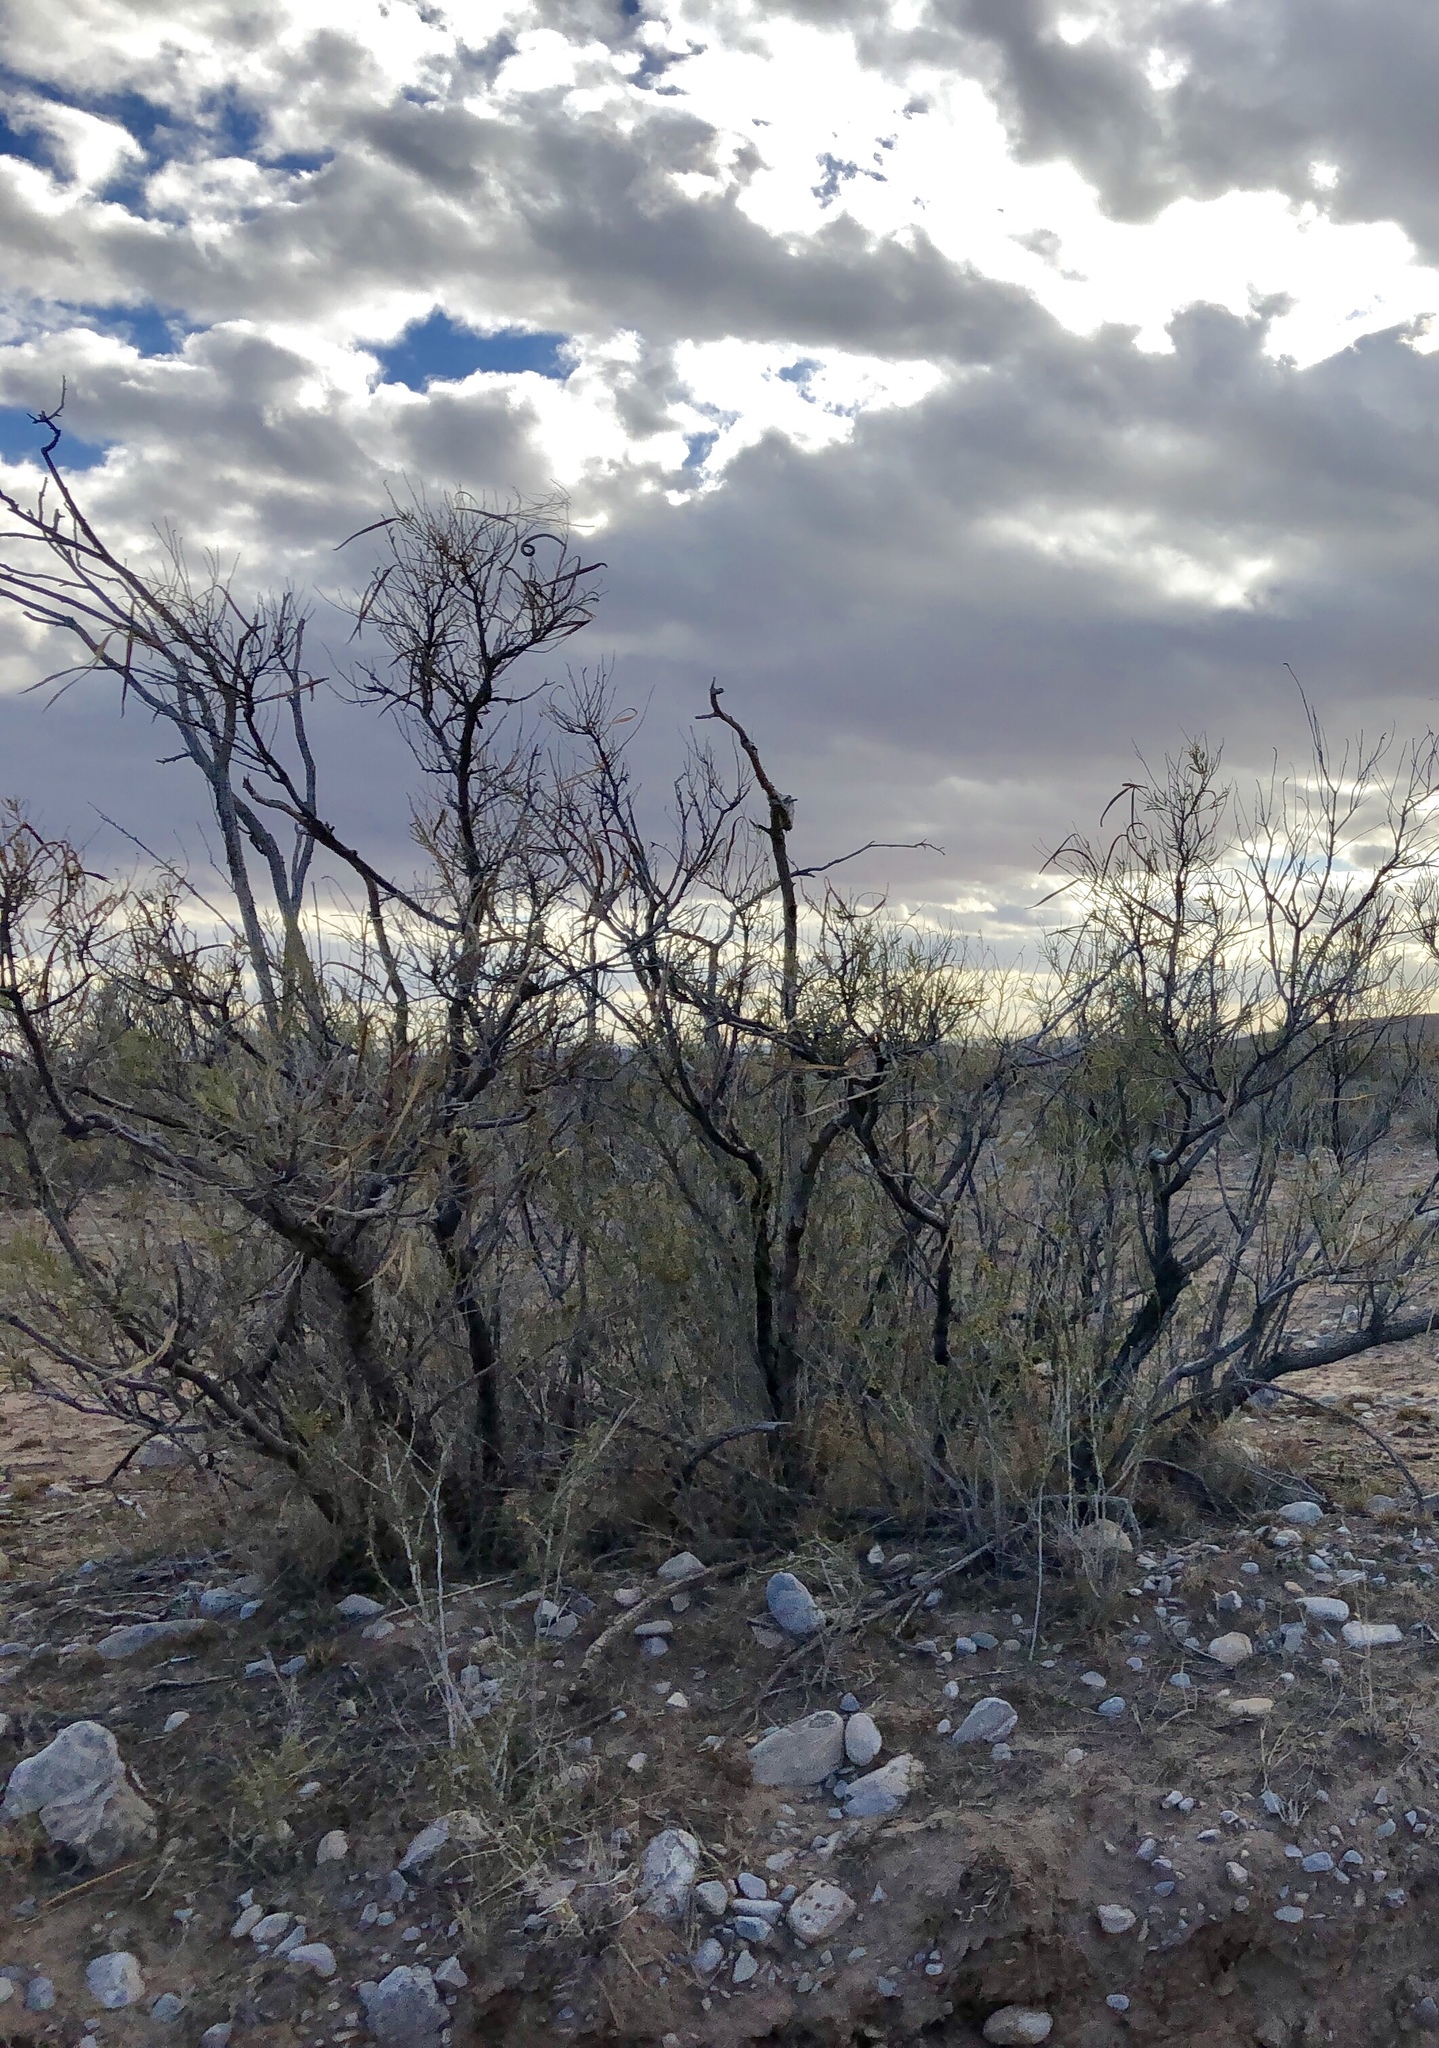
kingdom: Plantae
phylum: Tracheophyta
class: Magnoliopsida
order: Lamiales
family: Bignoniaceae
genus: Chilopsis
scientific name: Chilopsis linearis
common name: Desert-willow
